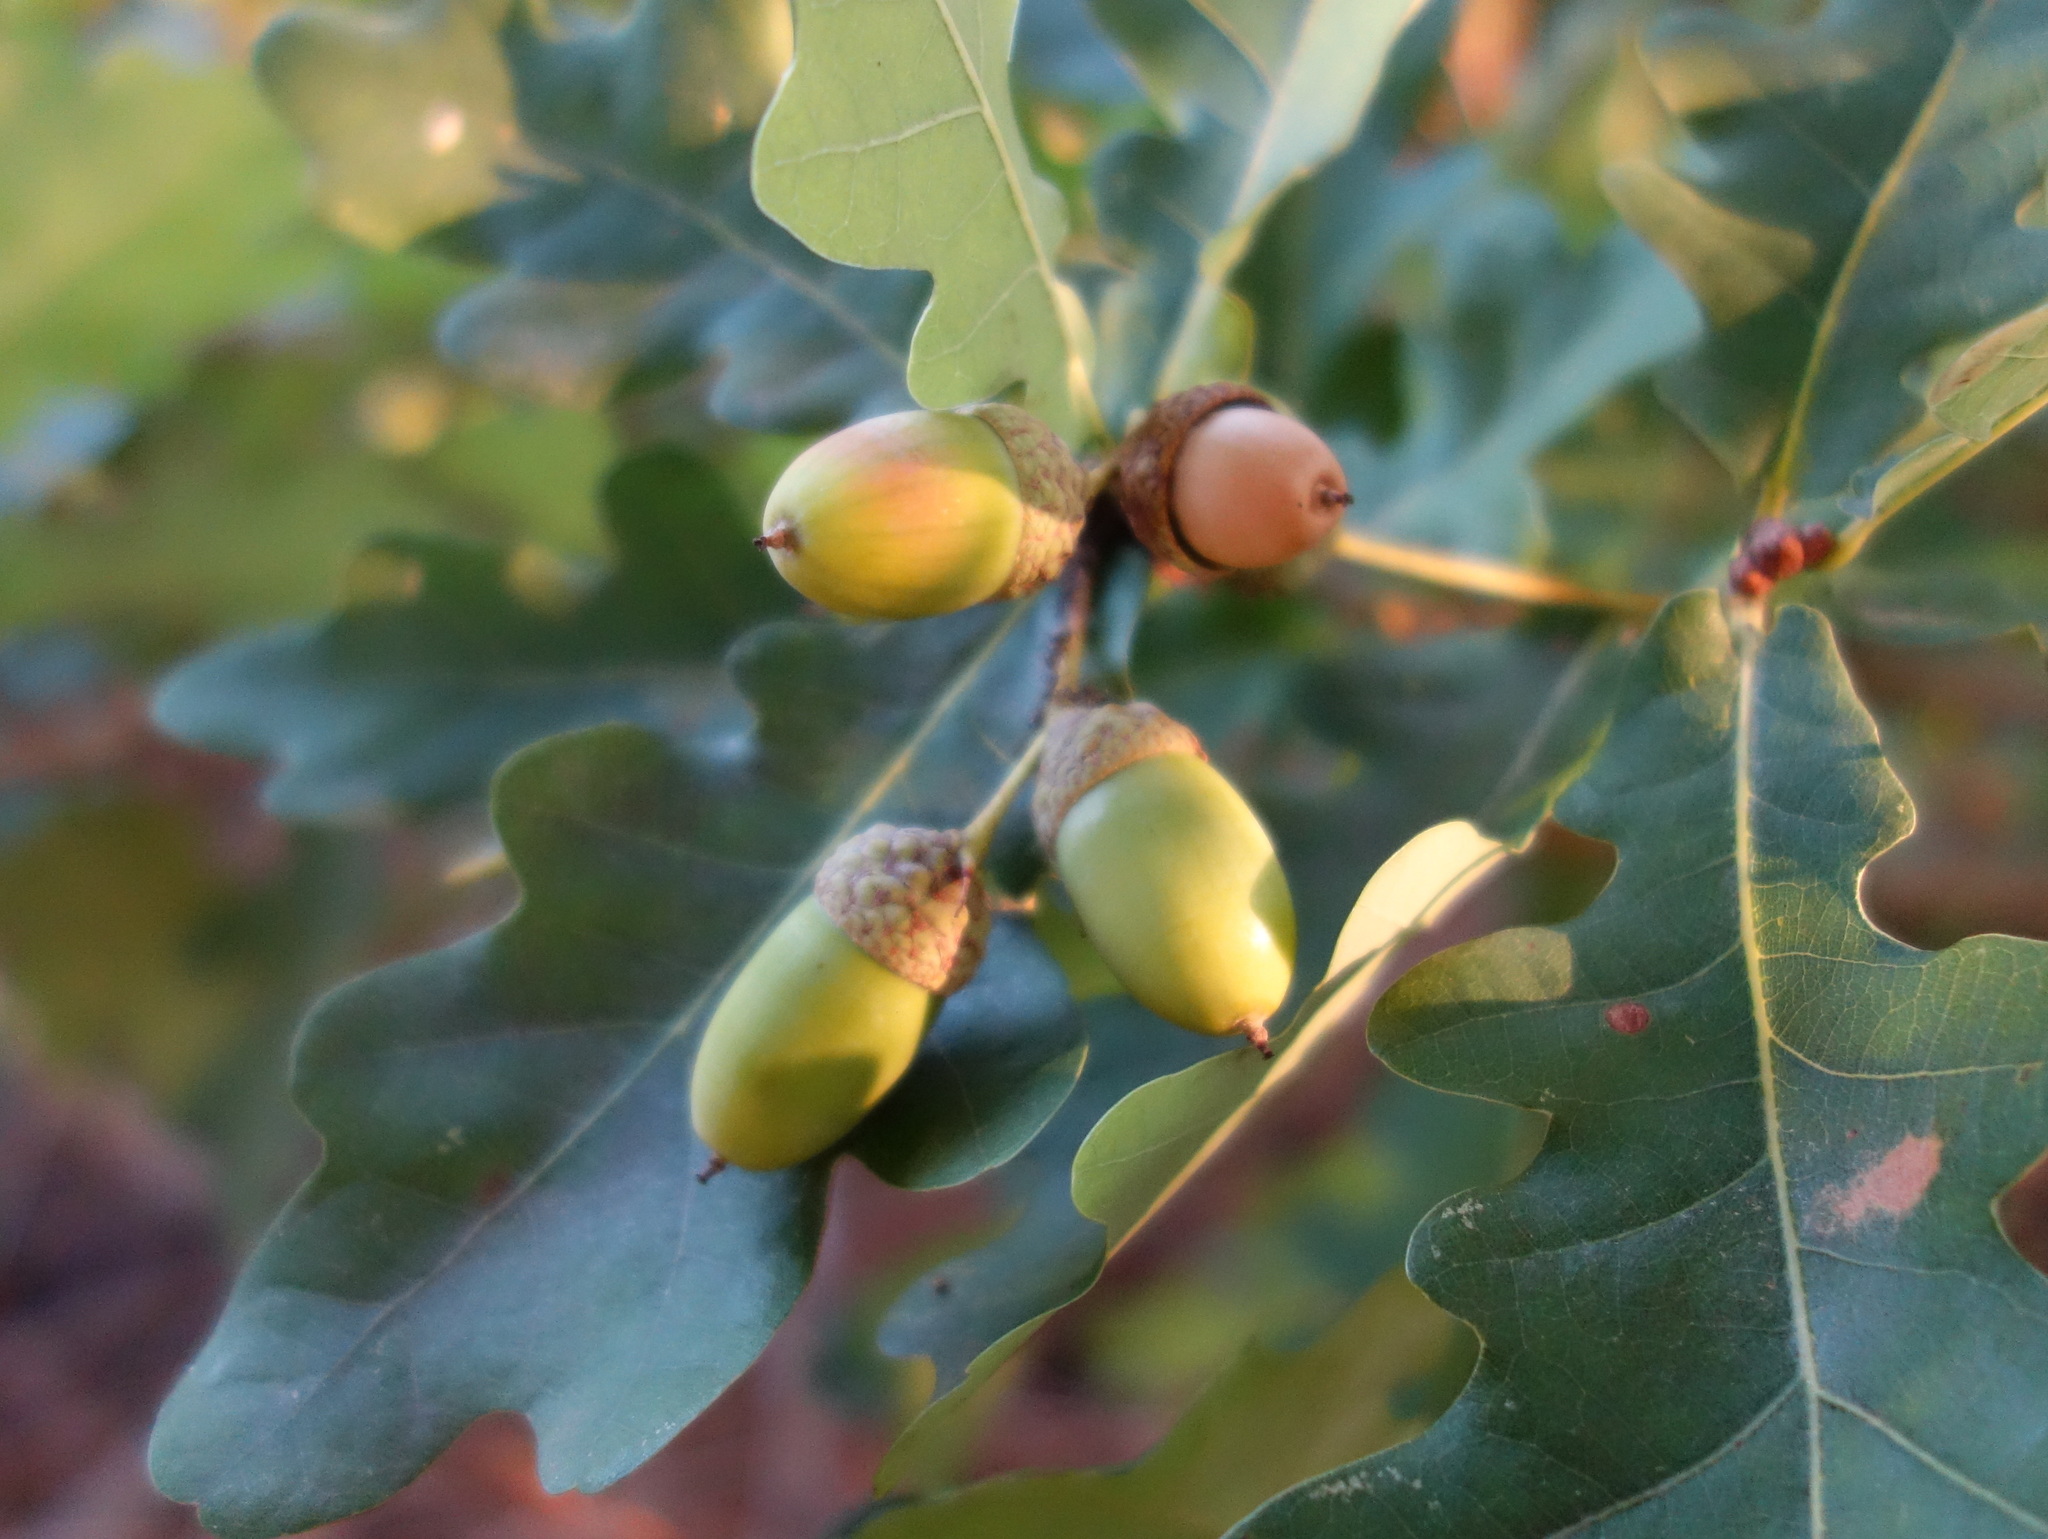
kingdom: Plantae
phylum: Tracheophyta
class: Magnoliopsida
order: Fagales
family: Fagaceae
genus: Quercus
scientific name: Quercus robur
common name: Pedunculate oak
